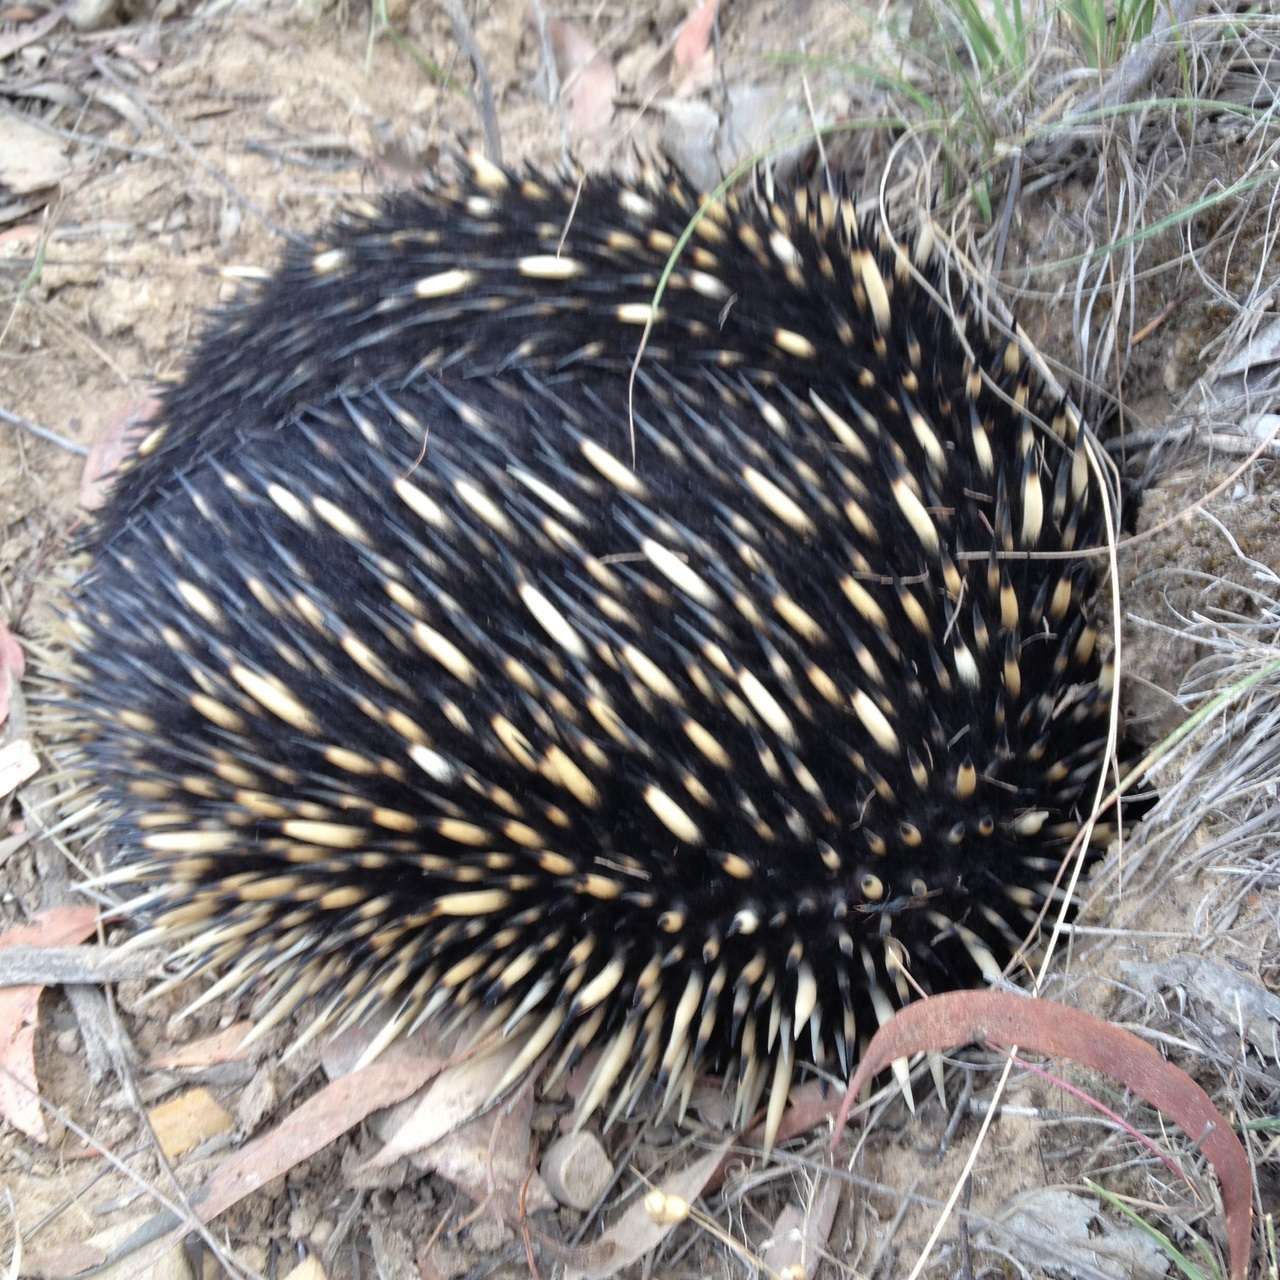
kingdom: Animalia
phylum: Chordata
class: Mammalia
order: Monotremata
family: Tachyglossidae
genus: Tachyglossus
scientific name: Tachyglossus aculeatus
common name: Short-beaked echidna
